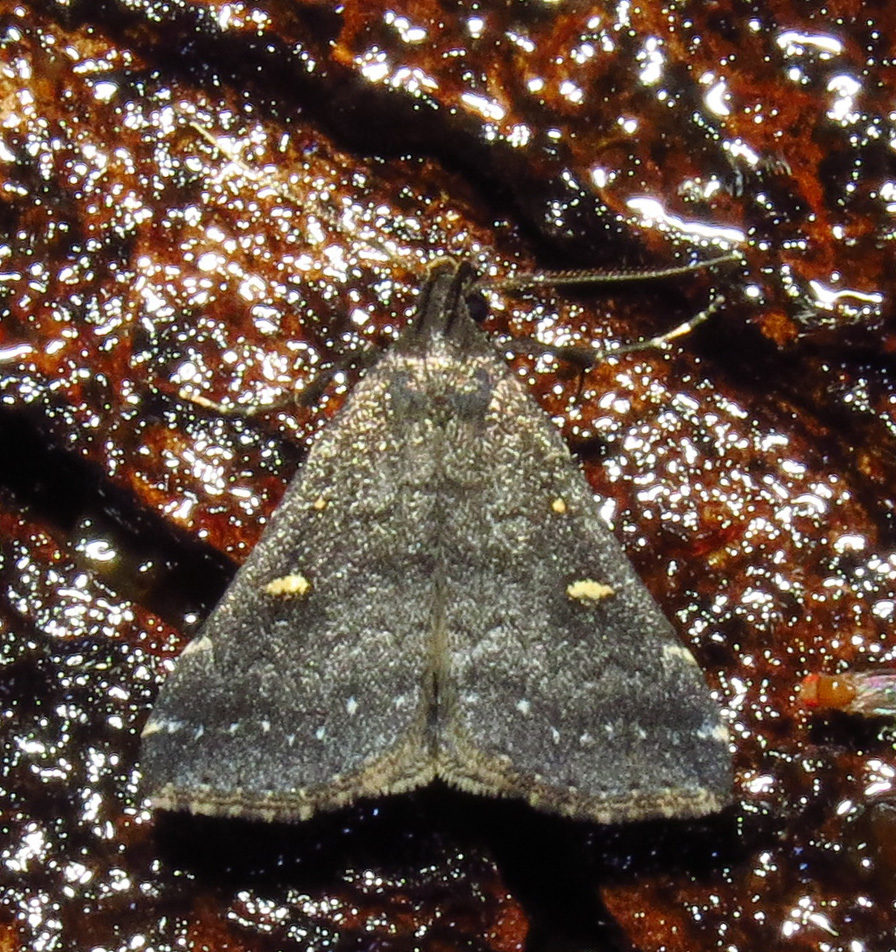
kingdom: Animalia
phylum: Arthropoda
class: Insecta
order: Lepidoptera
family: Erebidae
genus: Tetanolita
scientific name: Tetanolita mynesalis
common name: Smoky tetanolita moth
